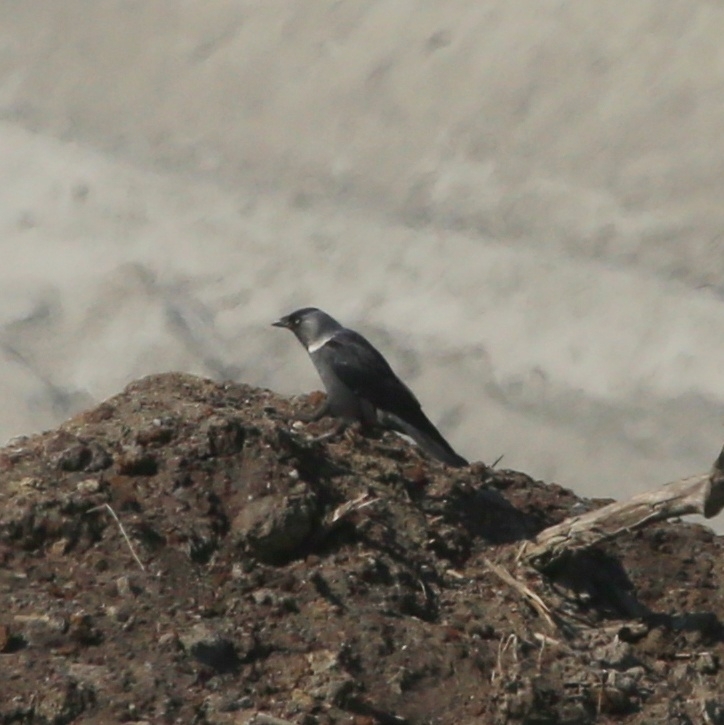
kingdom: Animalia
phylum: Chordata
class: Aves
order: Passeriformes
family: Corvidae
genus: Coloeus
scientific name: Coloeus monedula
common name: Western jackdaw
